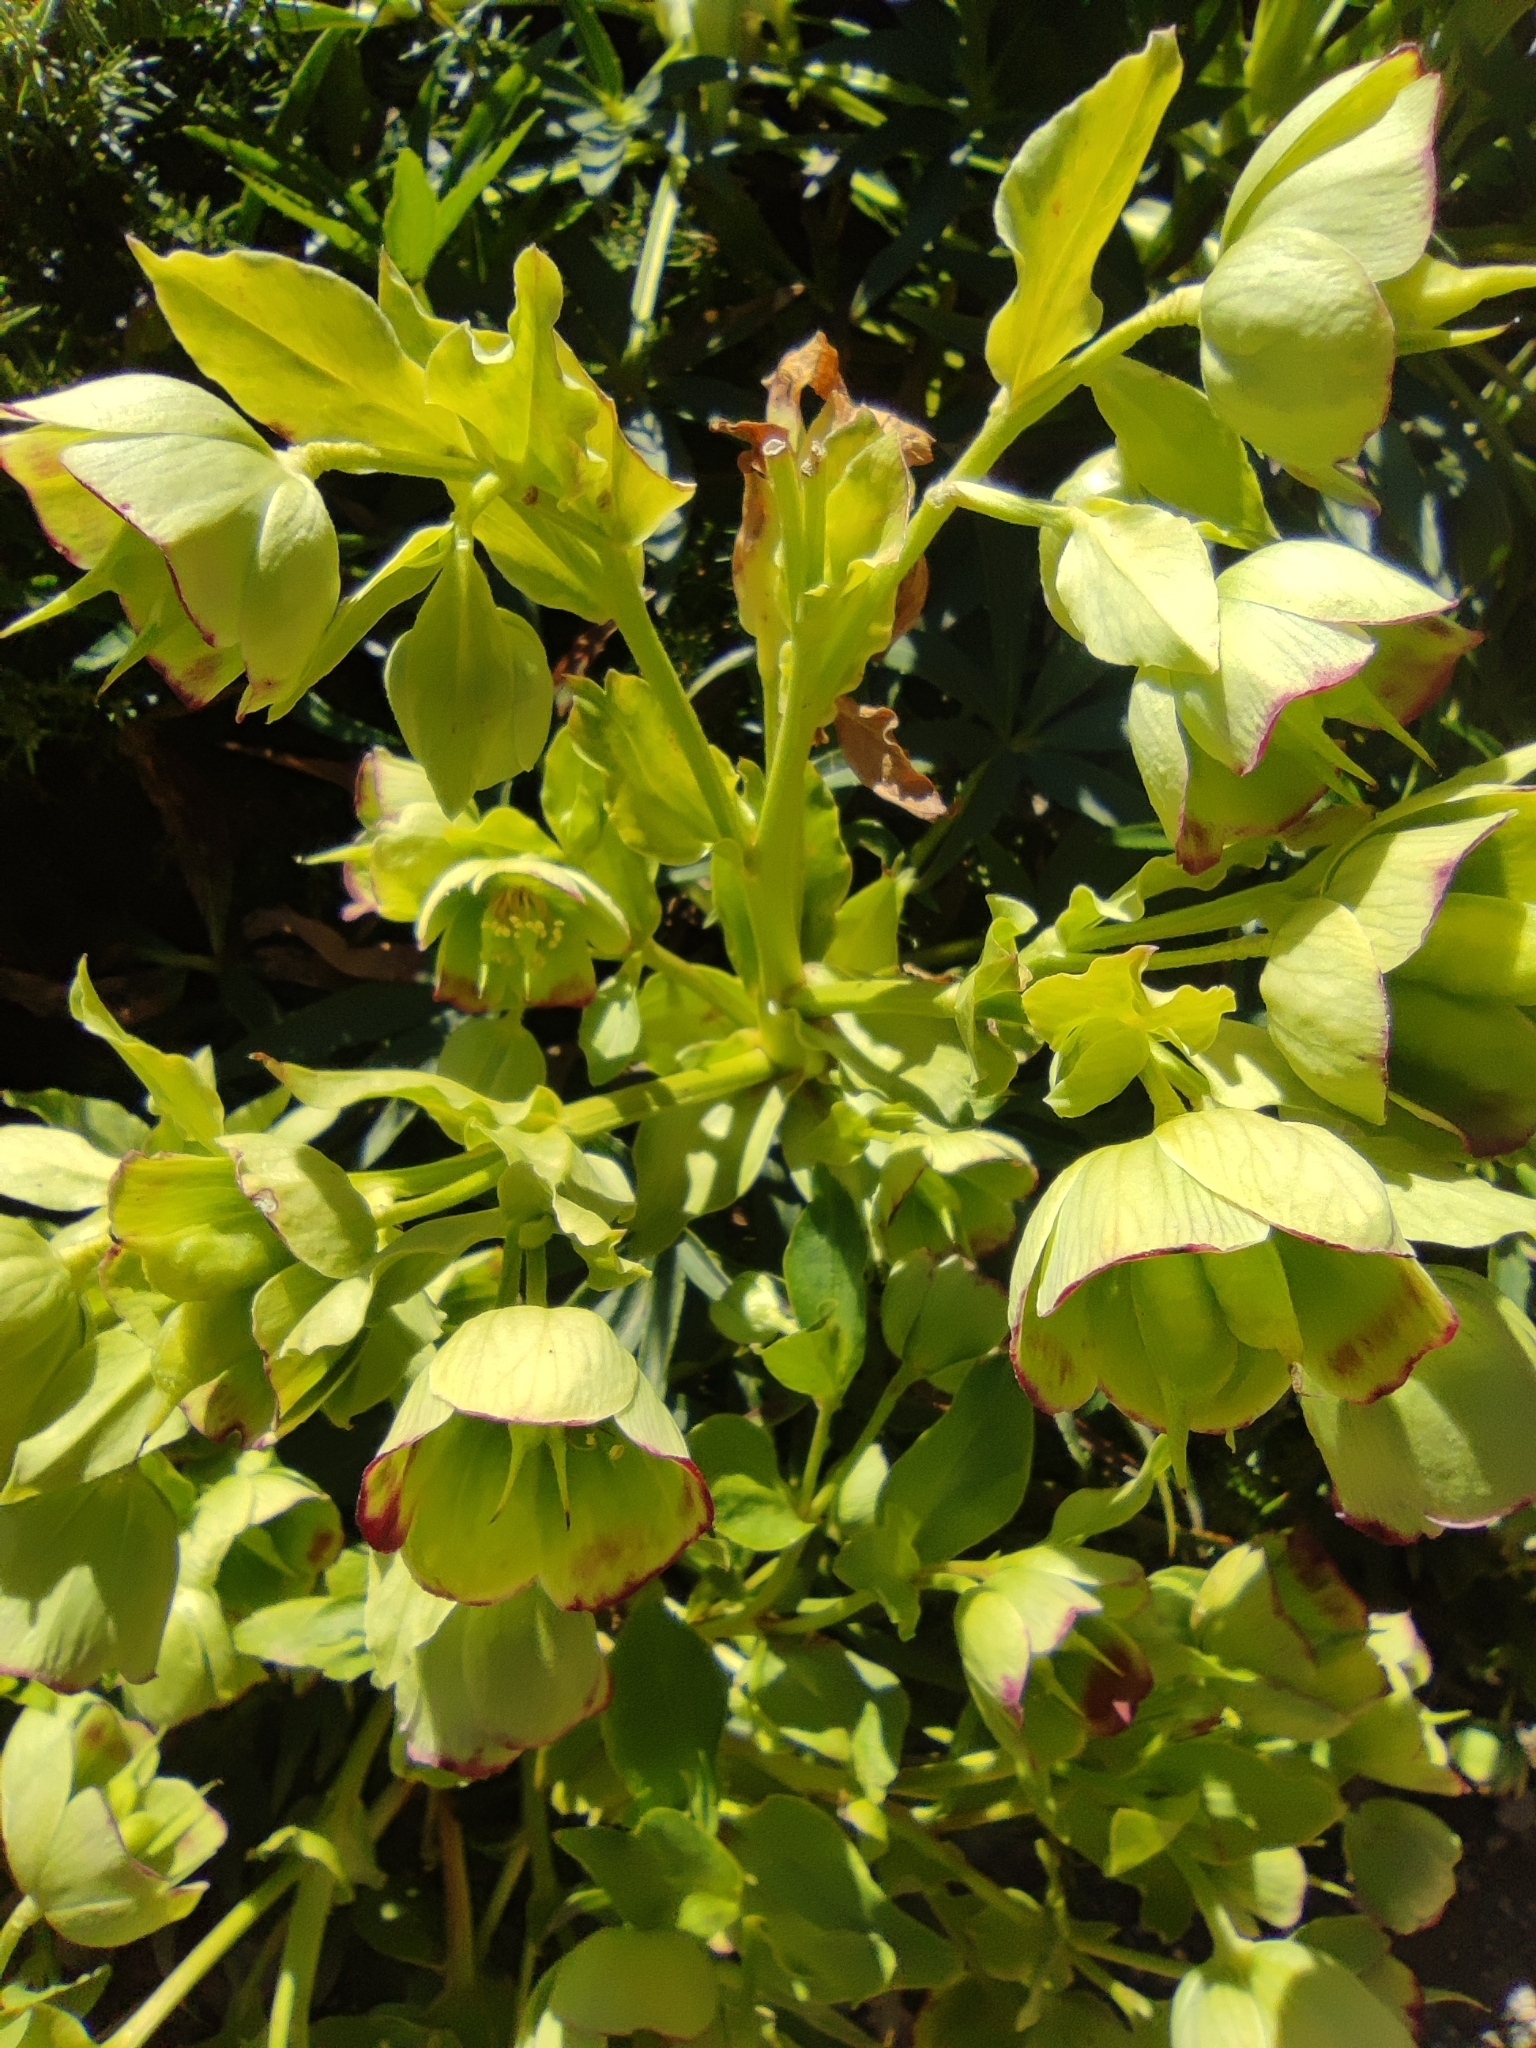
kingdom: Plantae
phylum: Tracheophyta
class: Magnoliopsida
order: Ranunculales
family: Ranunculaceae
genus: Helleborus
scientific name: Helleborus foetidus
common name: Stinking hellebore
